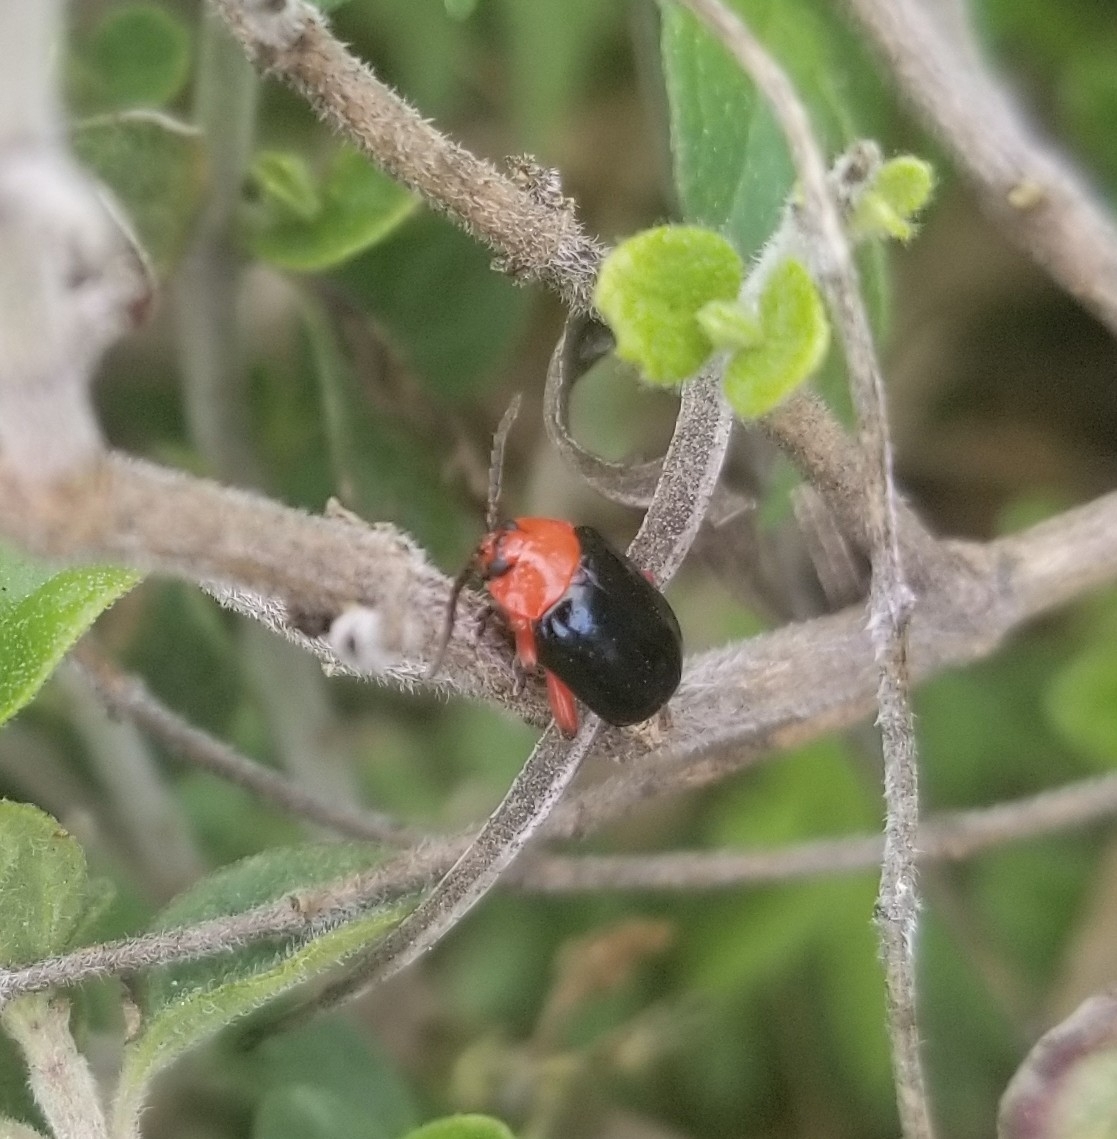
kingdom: Animalia
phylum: Arthropoda
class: Insecta
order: Coleoptera
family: Chrysomelidae
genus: Asphaera
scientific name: Asphaera lustrans
